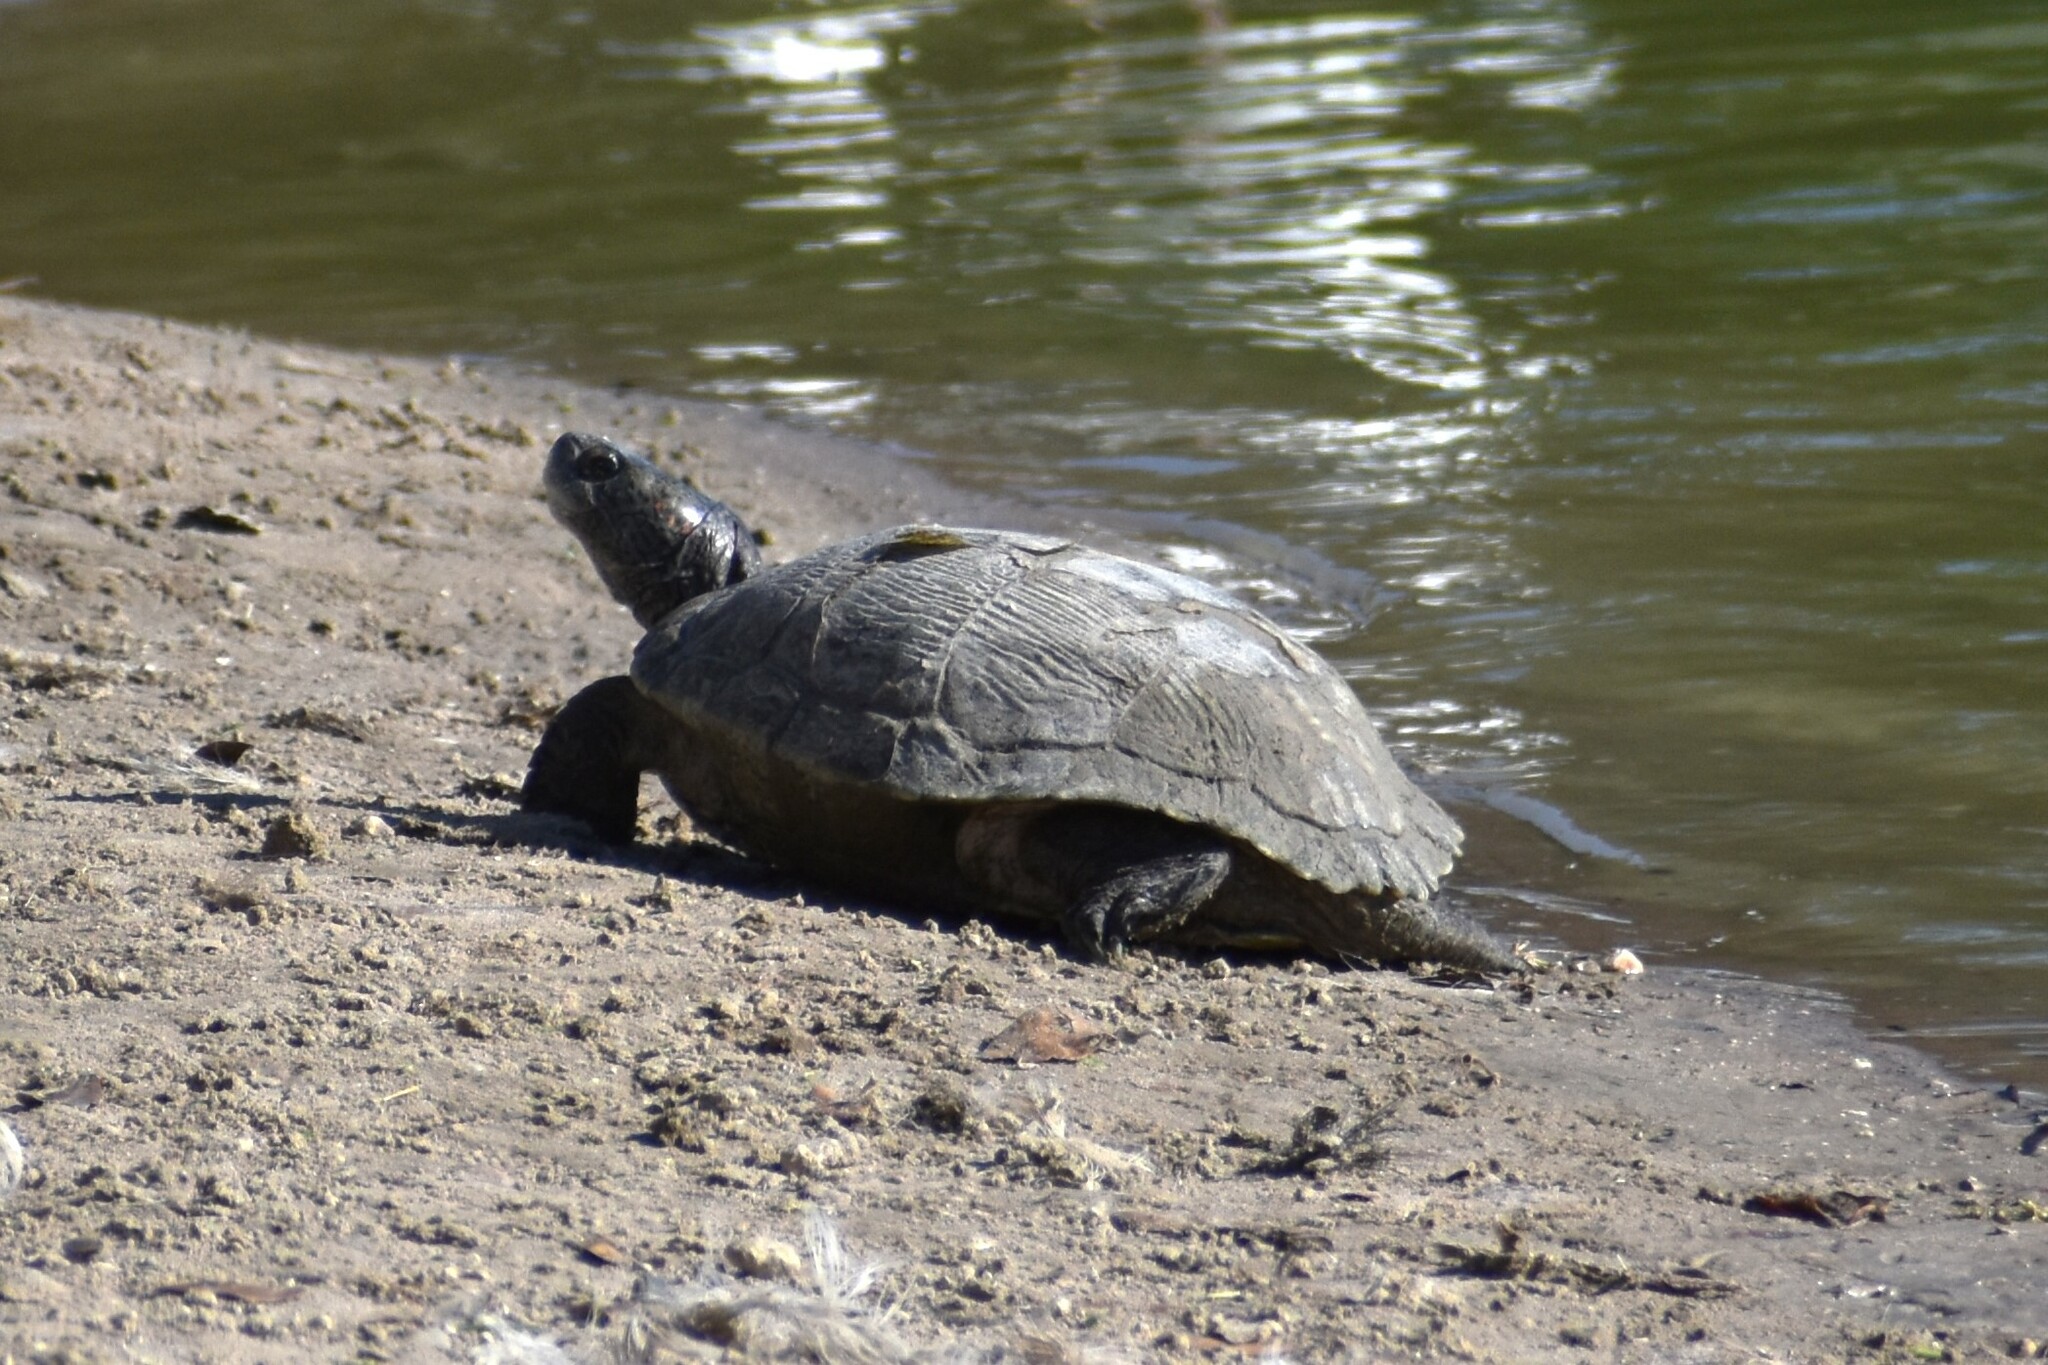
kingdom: Animalia
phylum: Chordata
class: Testudines
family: Emydidae
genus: Trachemys
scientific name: Trachemys scripta
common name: Slider
